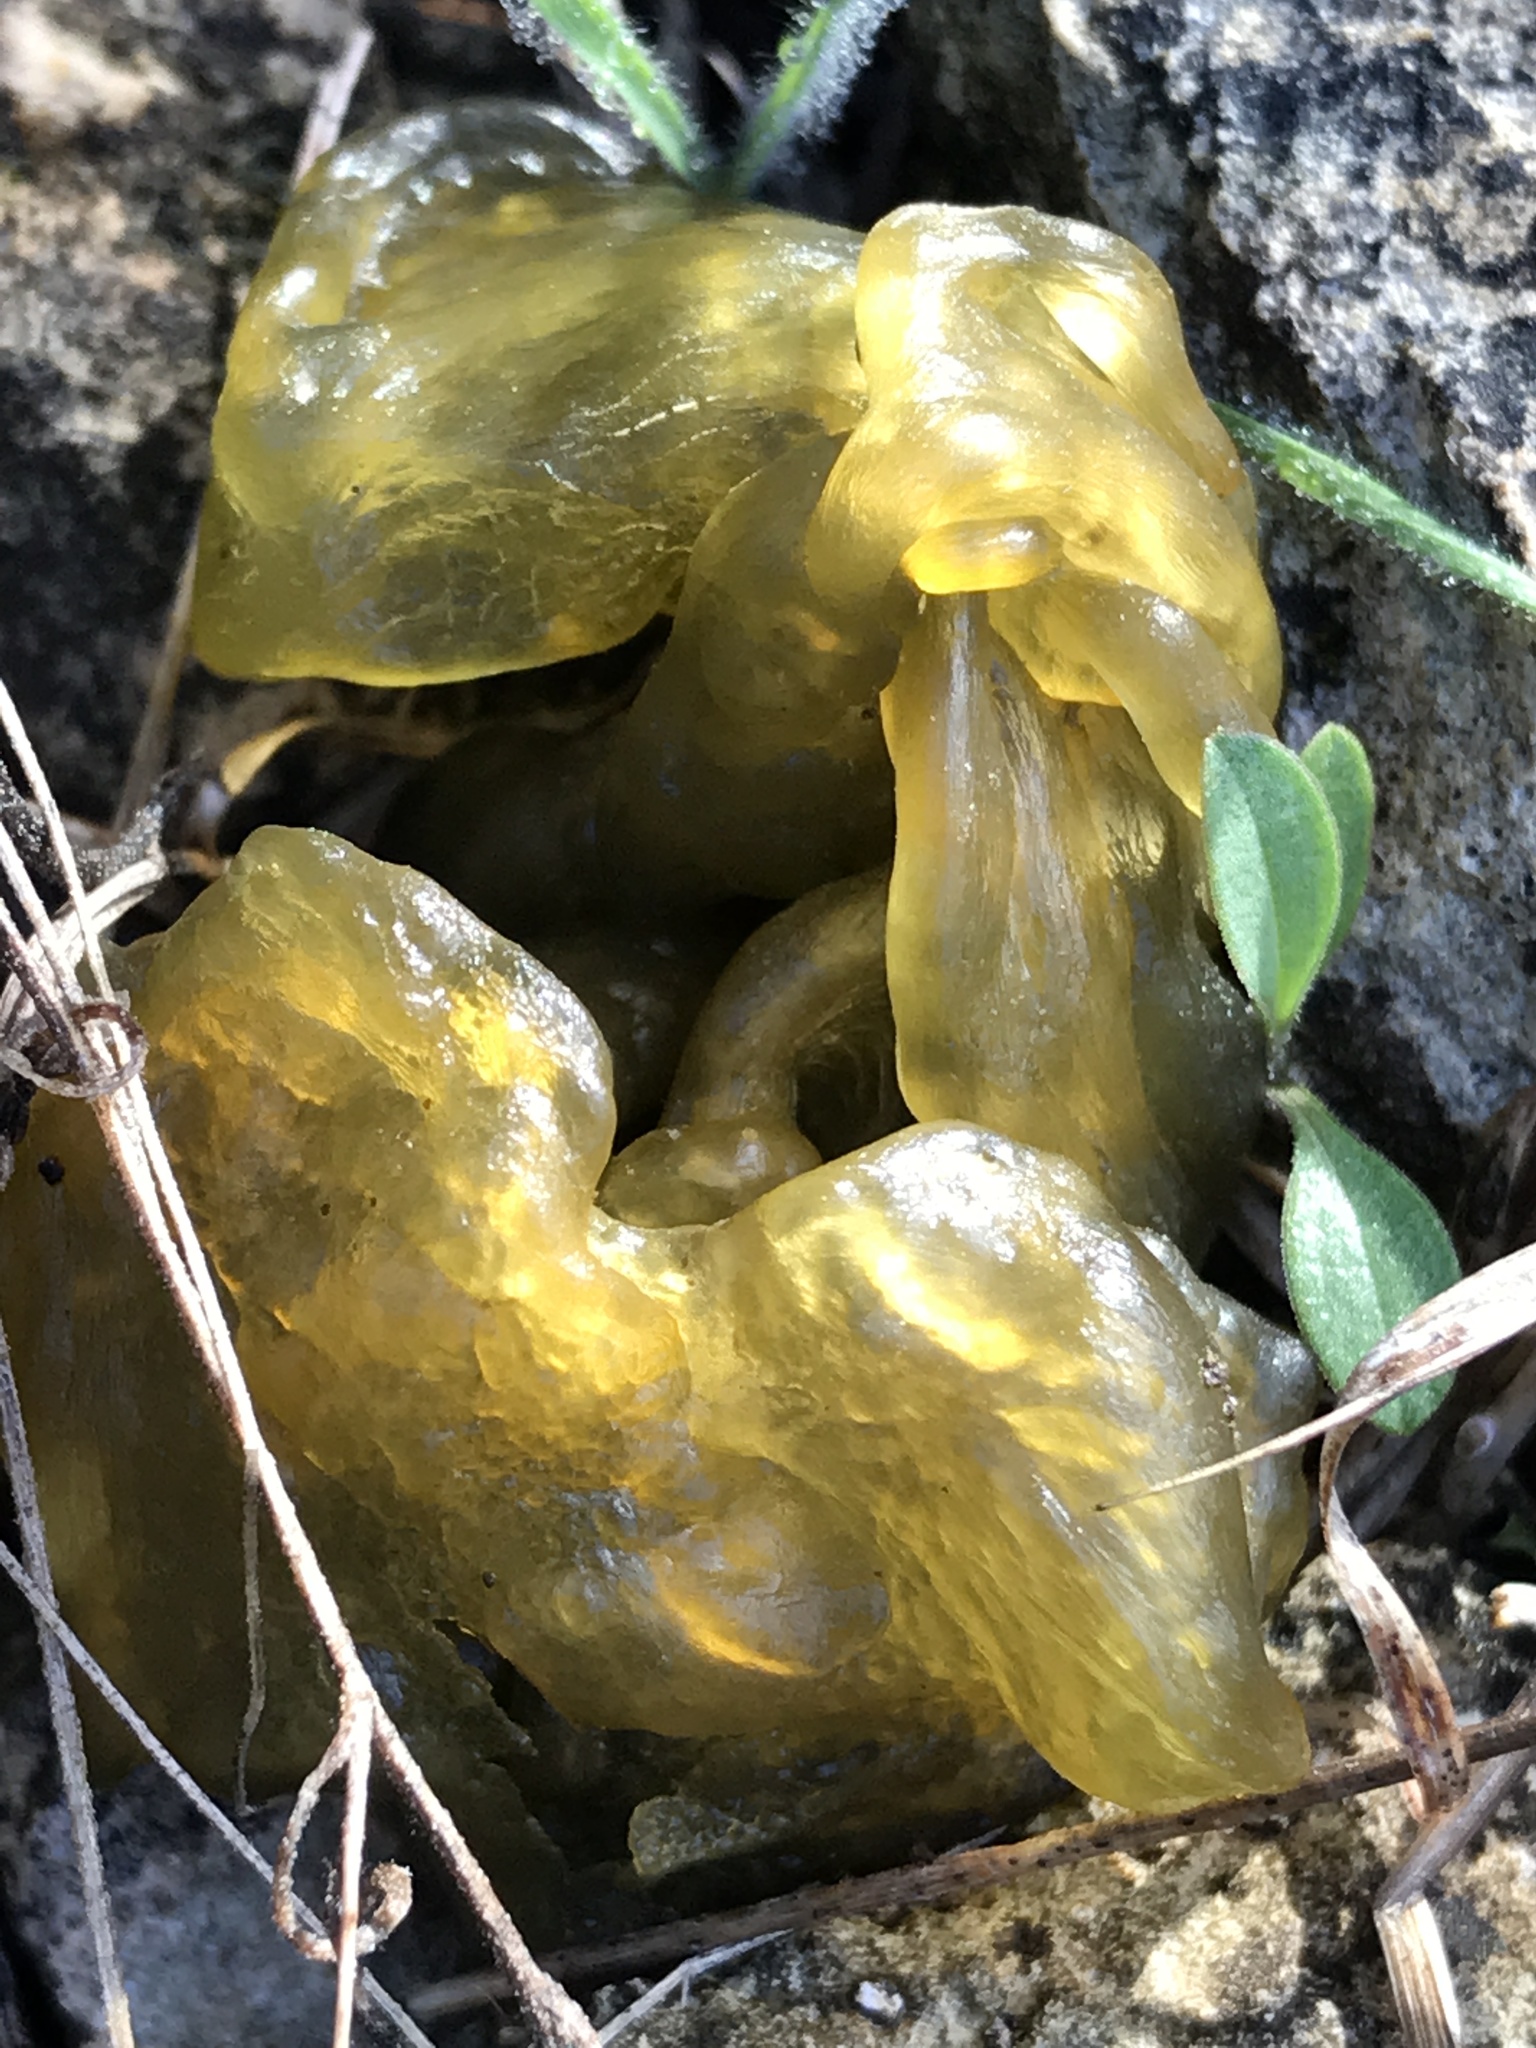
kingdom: Bacteria
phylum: Cyanobacteria
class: Cyanobacteriia
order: Cyanobacteriales
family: Nostocaceae
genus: Nostoc
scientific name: Nostoc commune
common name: Star jelly
